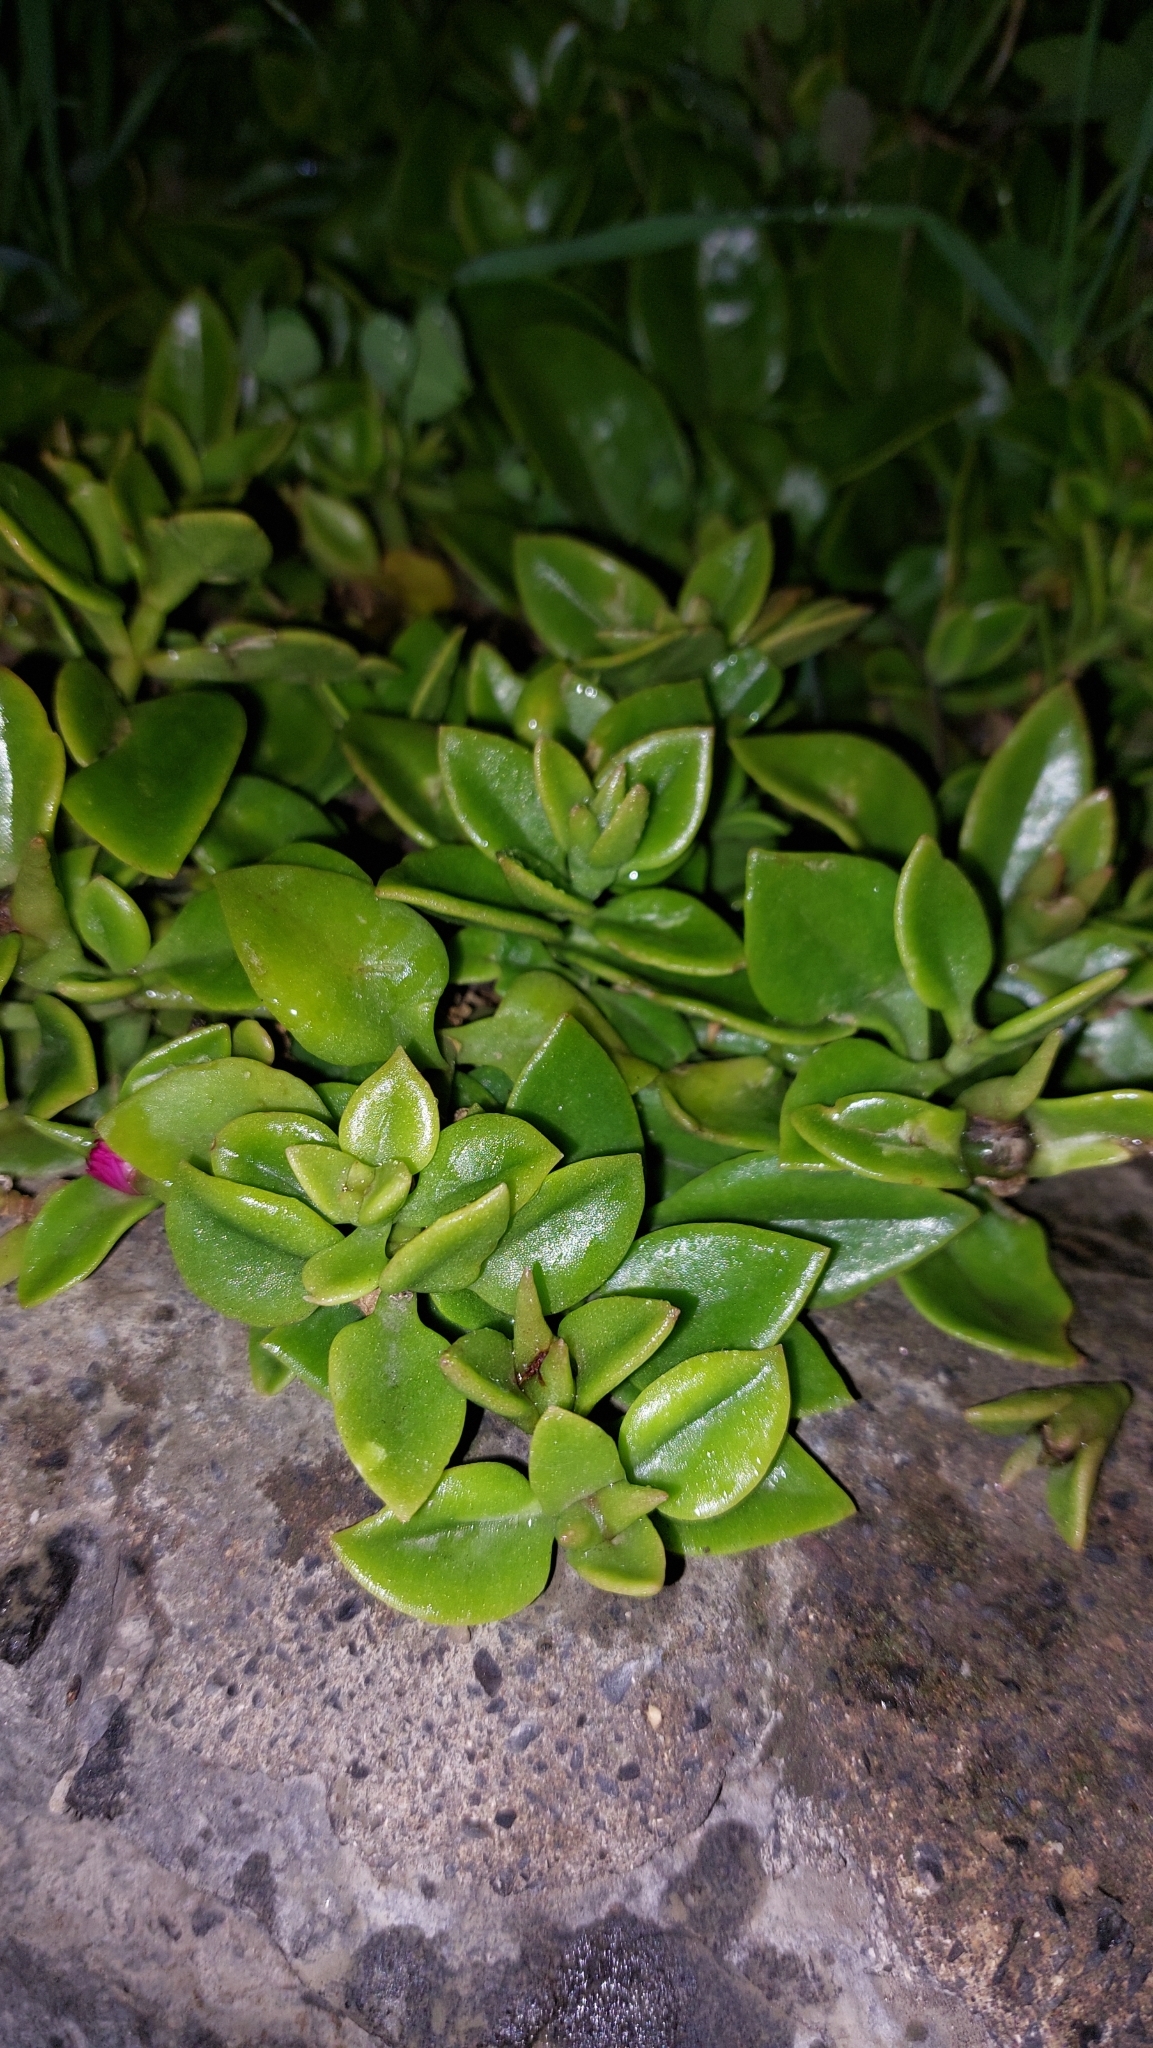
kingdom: Plantae
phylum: Tracheophyta
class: Magnoliopsida
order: Caryophyllales
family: Aizoaceae
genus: Mesembryanthemum
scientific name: Mesembryanthemum cordifolium
